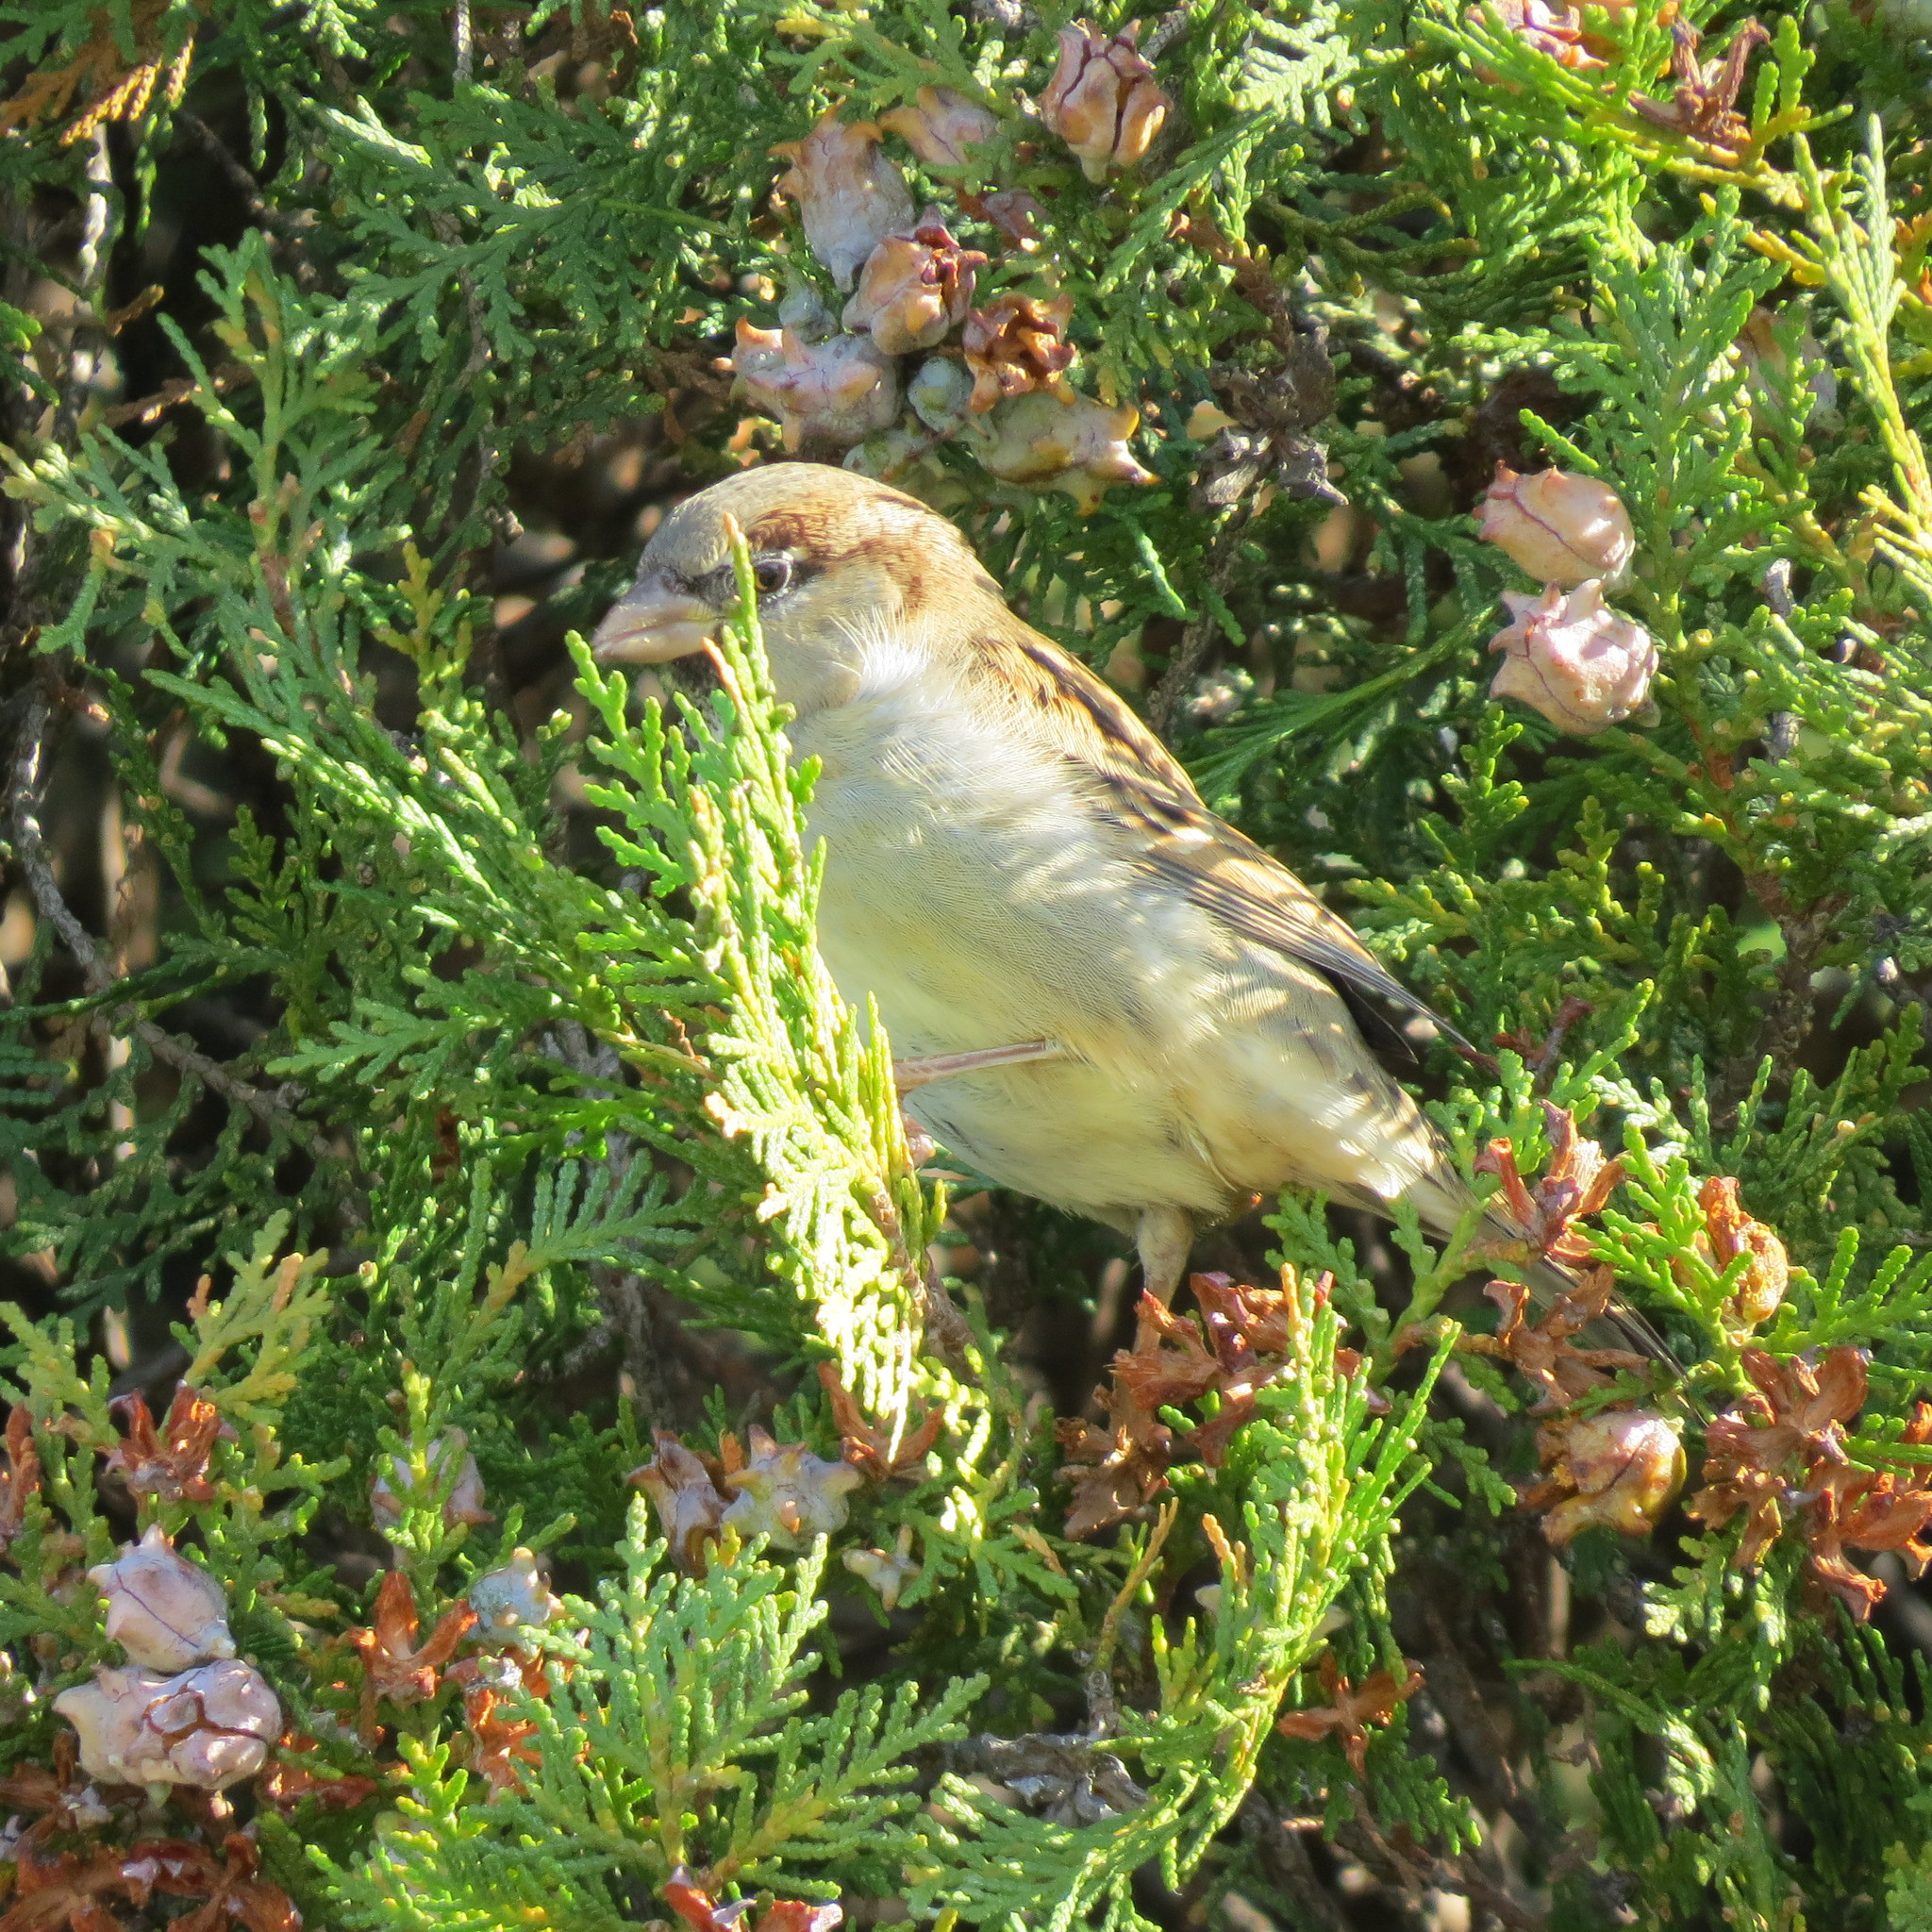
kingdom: Animalia
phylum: Chordata
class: Aves
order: Passeriformes
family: Passeridae
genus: Passer
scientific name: Passer domesticus
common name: House sparrow
